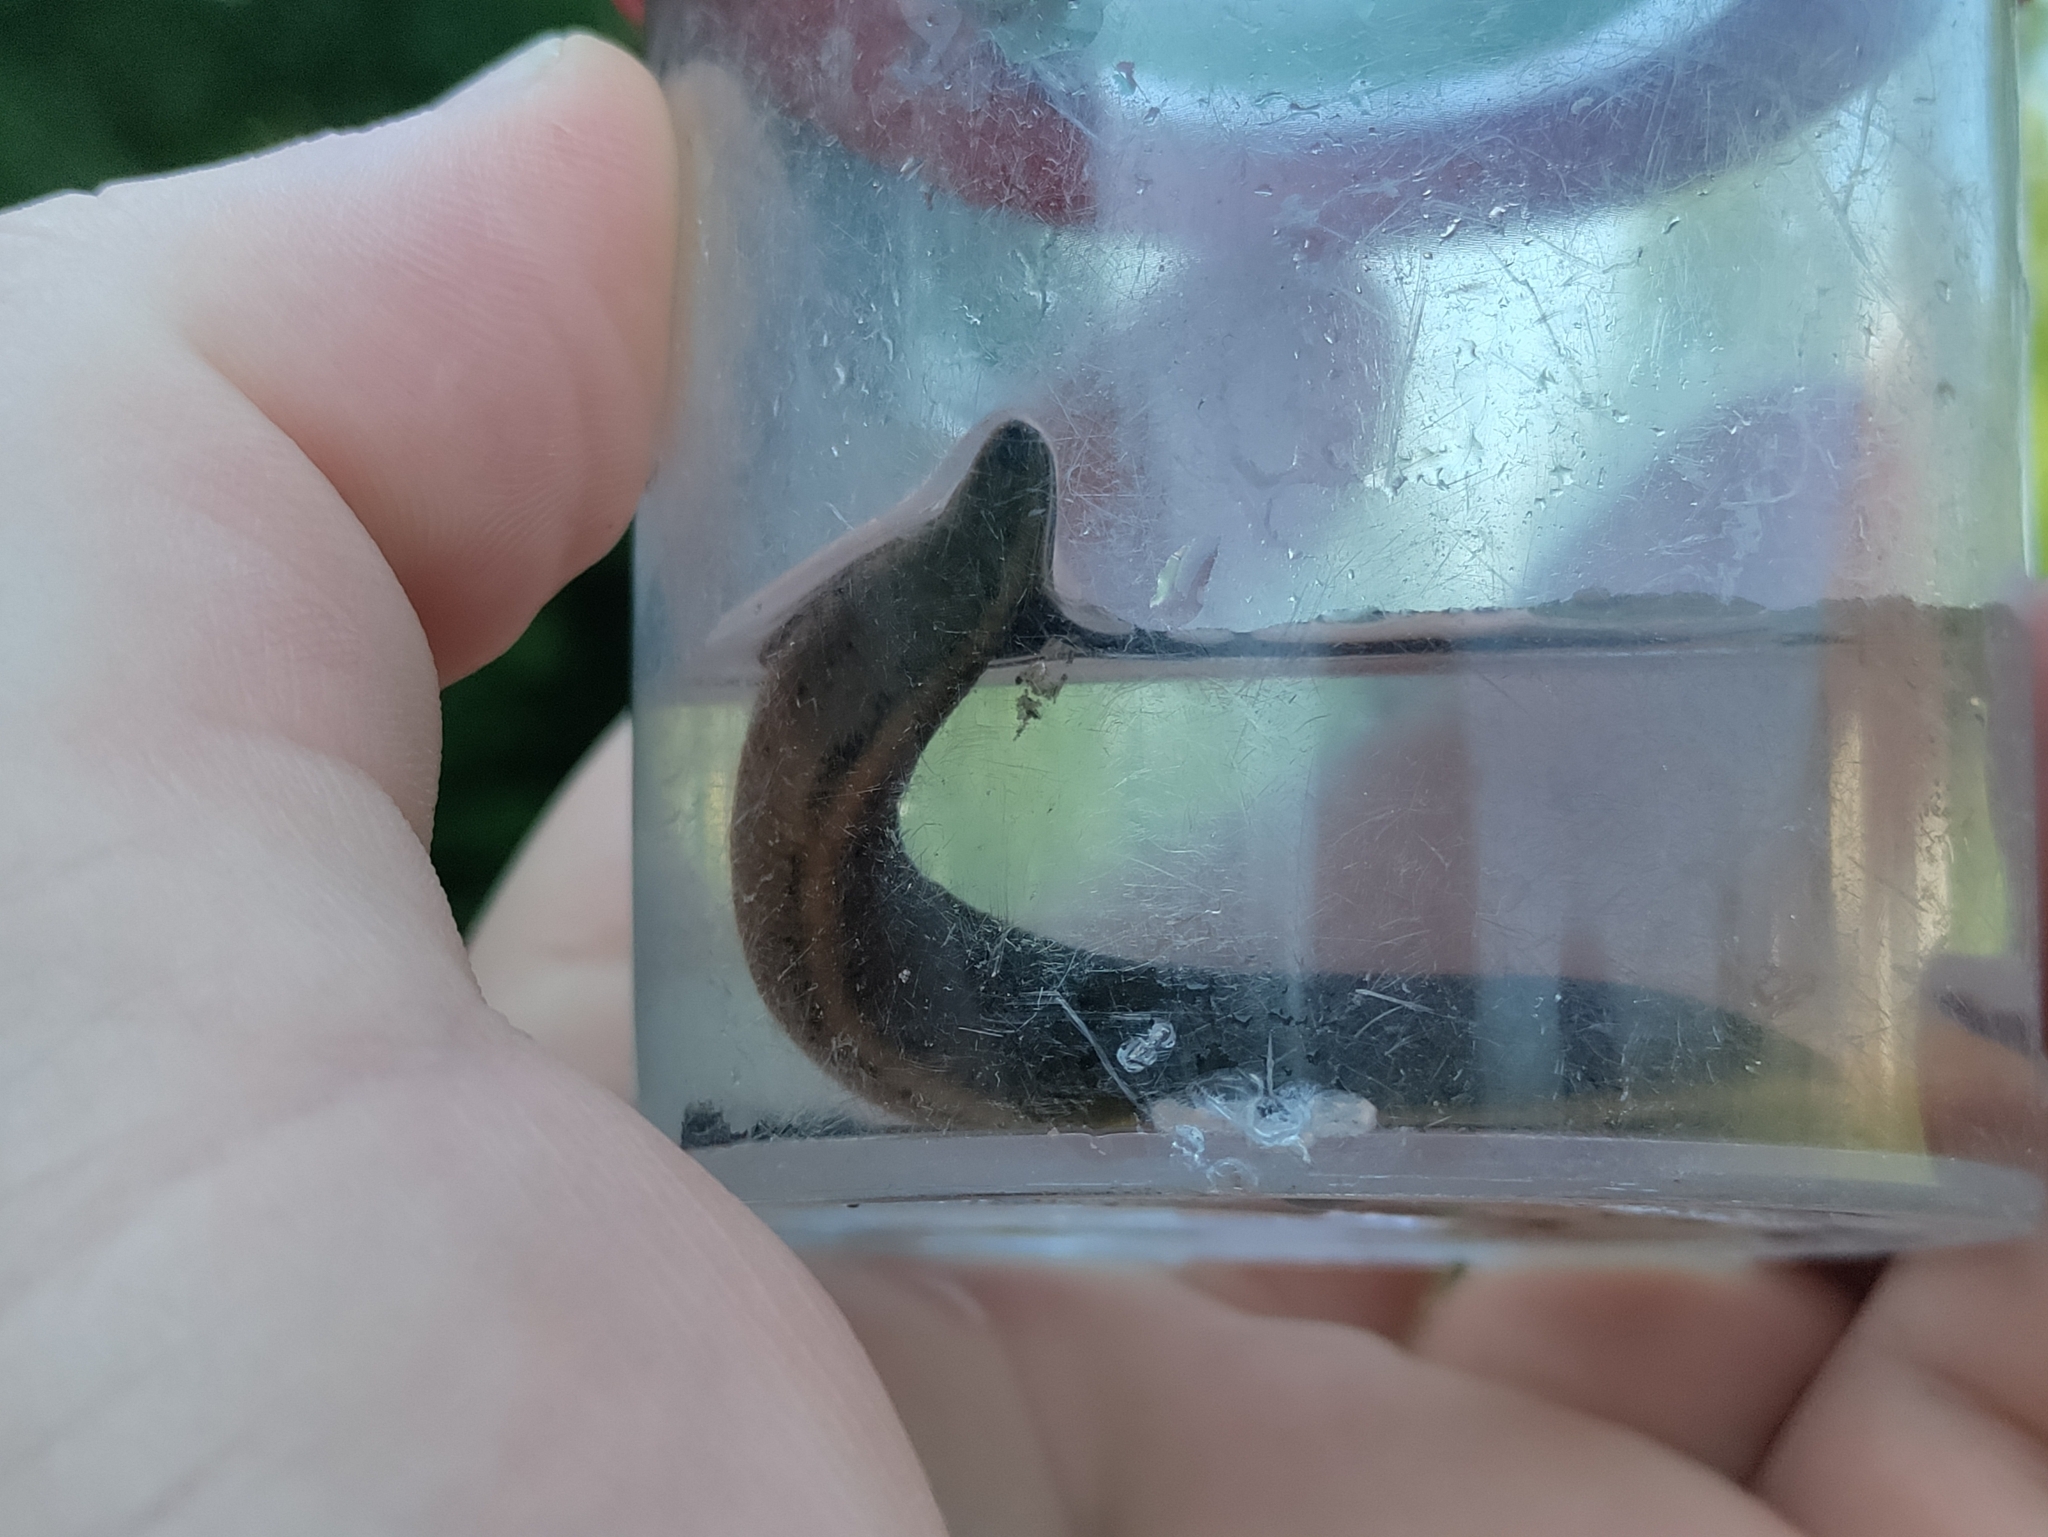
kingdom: Animalia
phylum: Annelida
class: Clitellata
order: Arhynchobdellida
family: Haemopidae
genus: Haemopis
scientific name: Haemopis sanguisuga
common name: Horse leech
